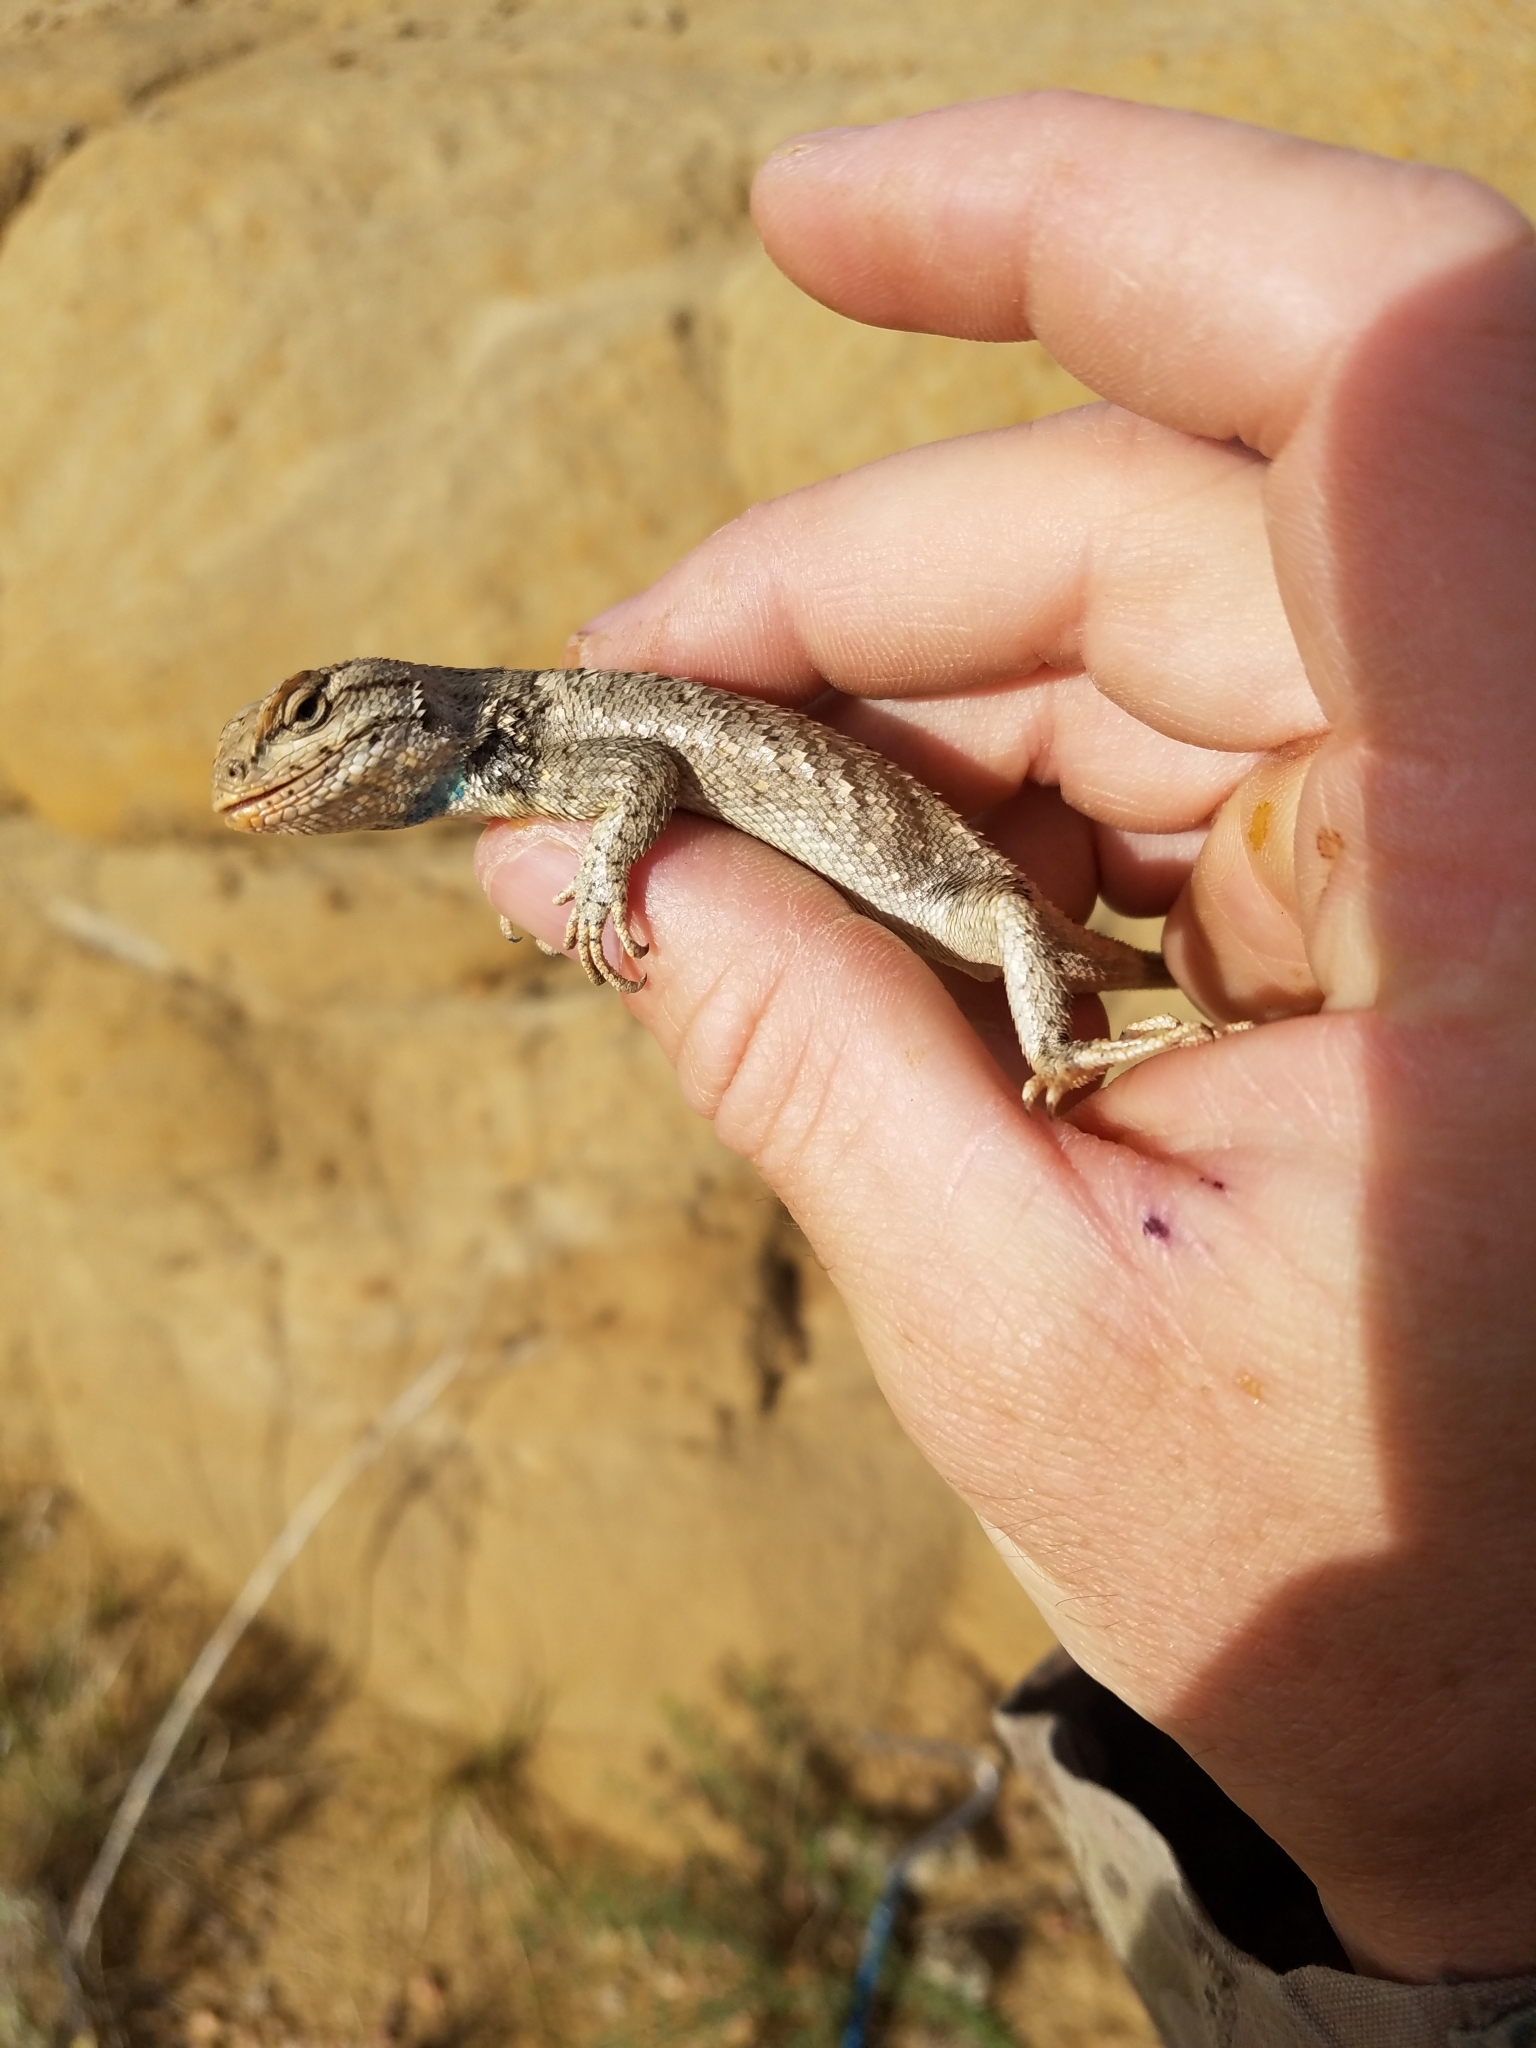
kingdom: Animalia
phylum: Chordata
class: Squamata
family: Phrynosomatidae
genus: Sceloporus
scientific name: Sceloporus consobrinus
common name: Southern prairie lizard
